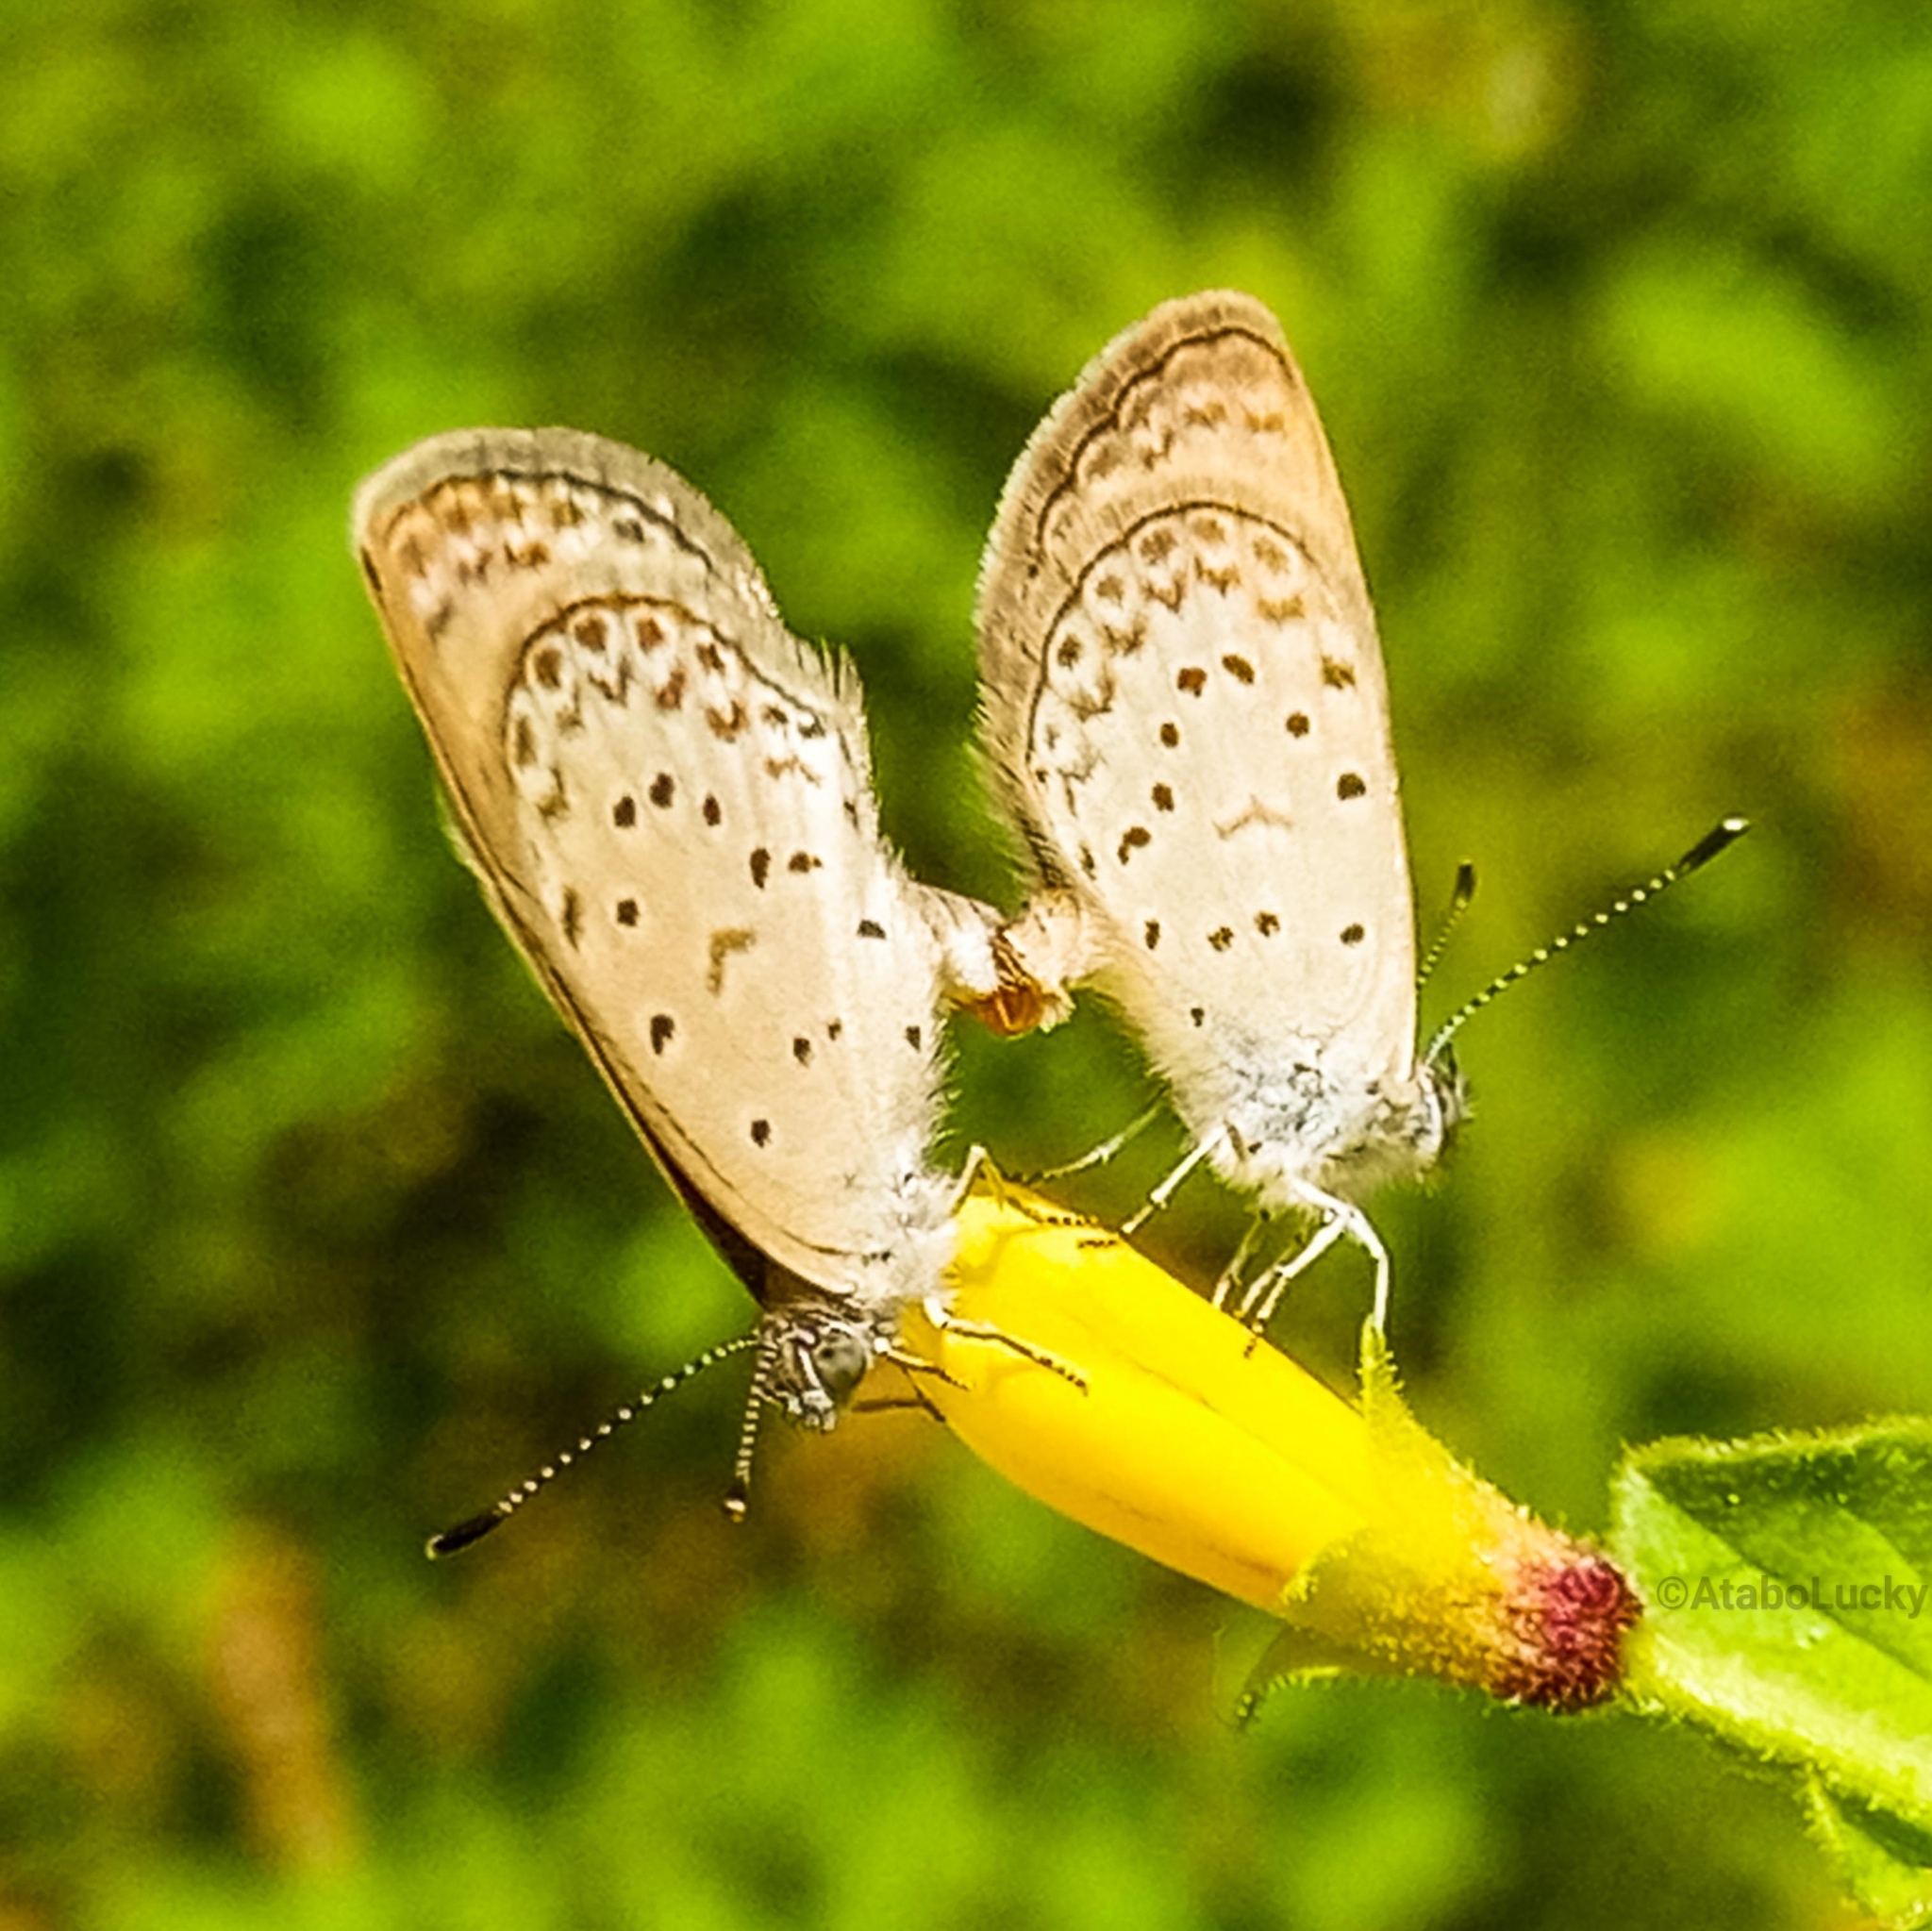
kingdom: Animalia
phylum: Arthropoda
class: Insecta
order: Lepidoptera
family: Lycaenidae
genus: Zizeeria
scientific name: Zizeeria knysna
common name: African grass blue
